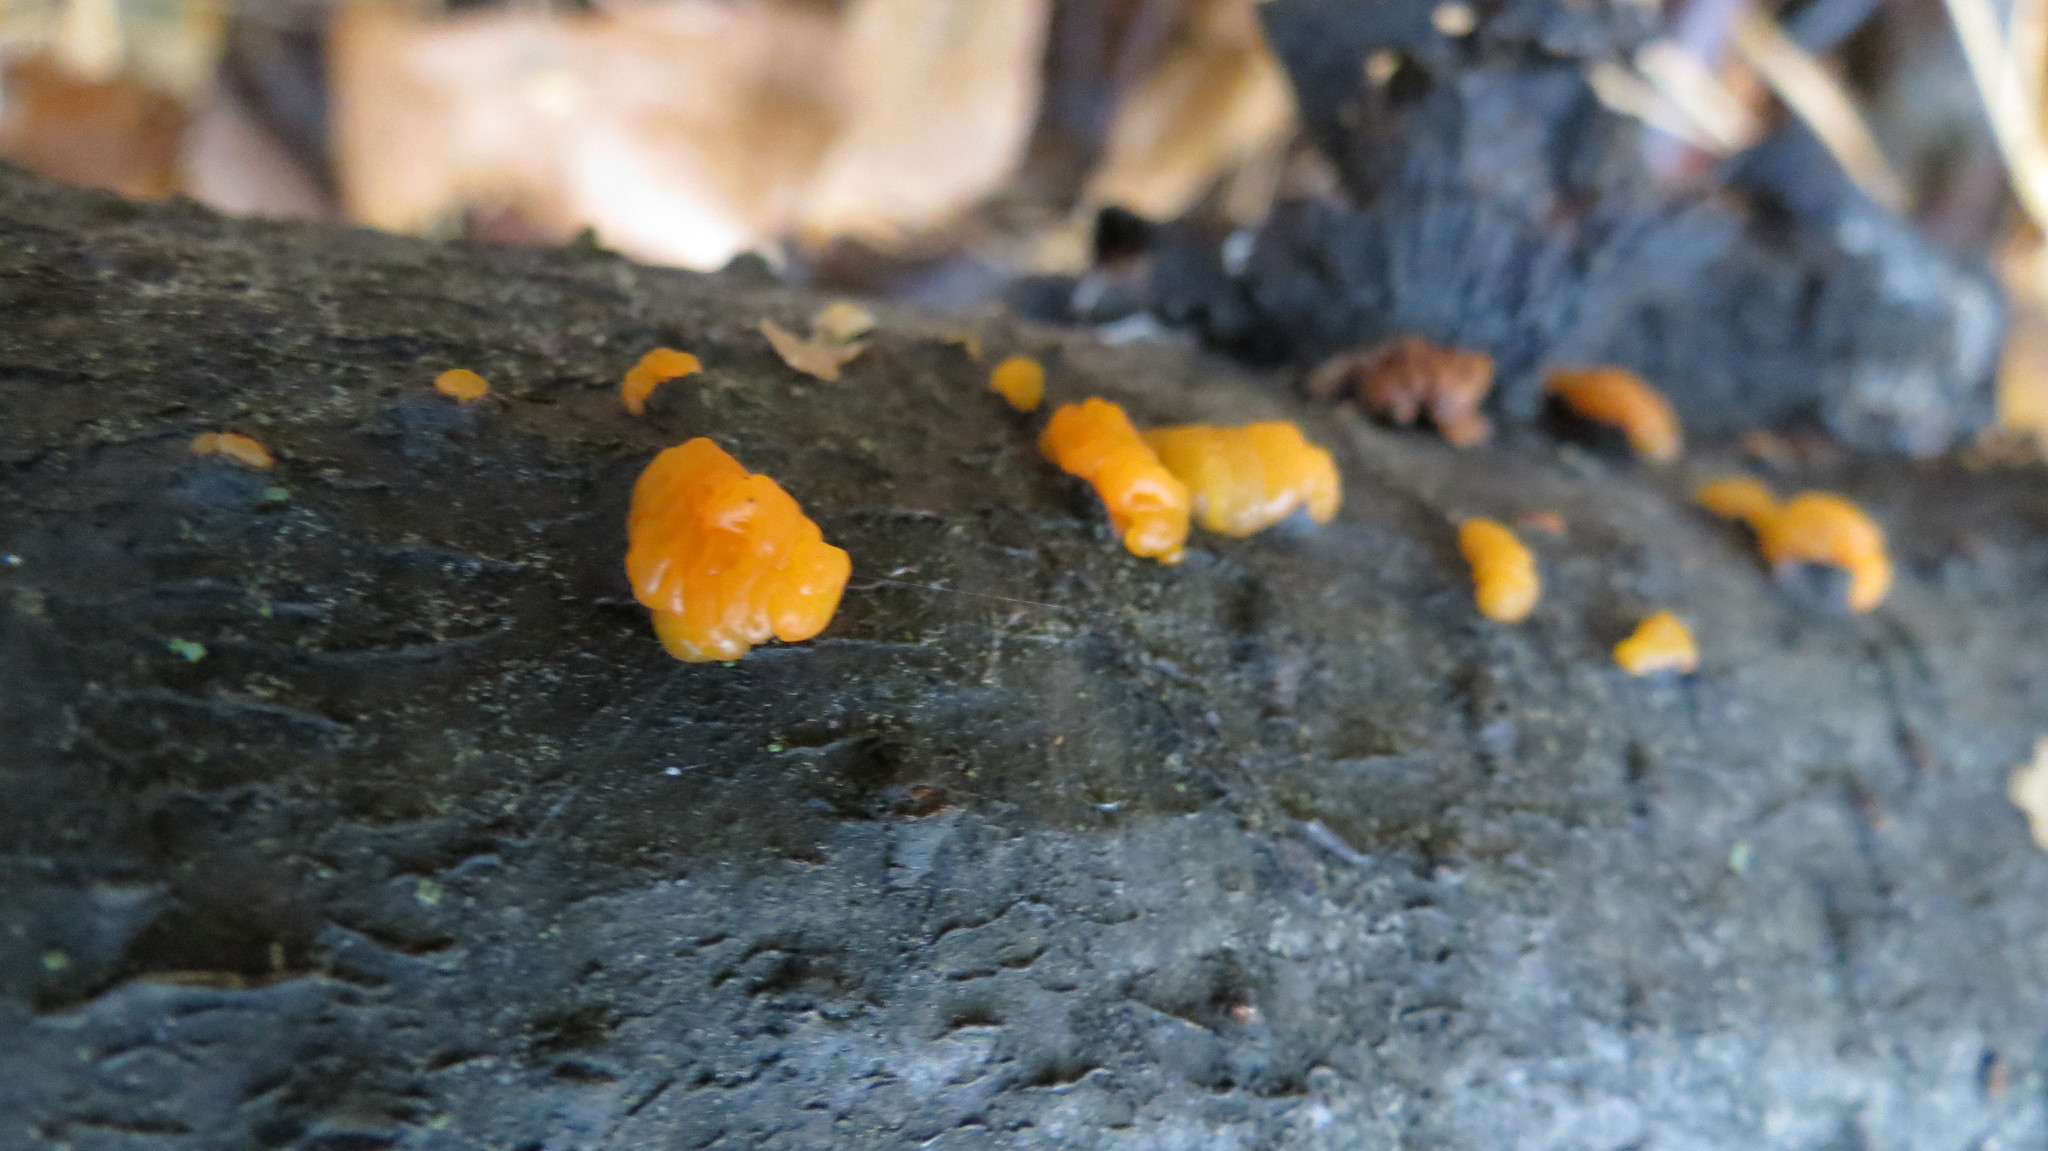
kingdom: Fungi
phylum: Basidiomycota
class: Tremellomycetes
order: Tremellales
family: Tremellaceae
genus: Tremella
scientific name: Tremella mesenterica
